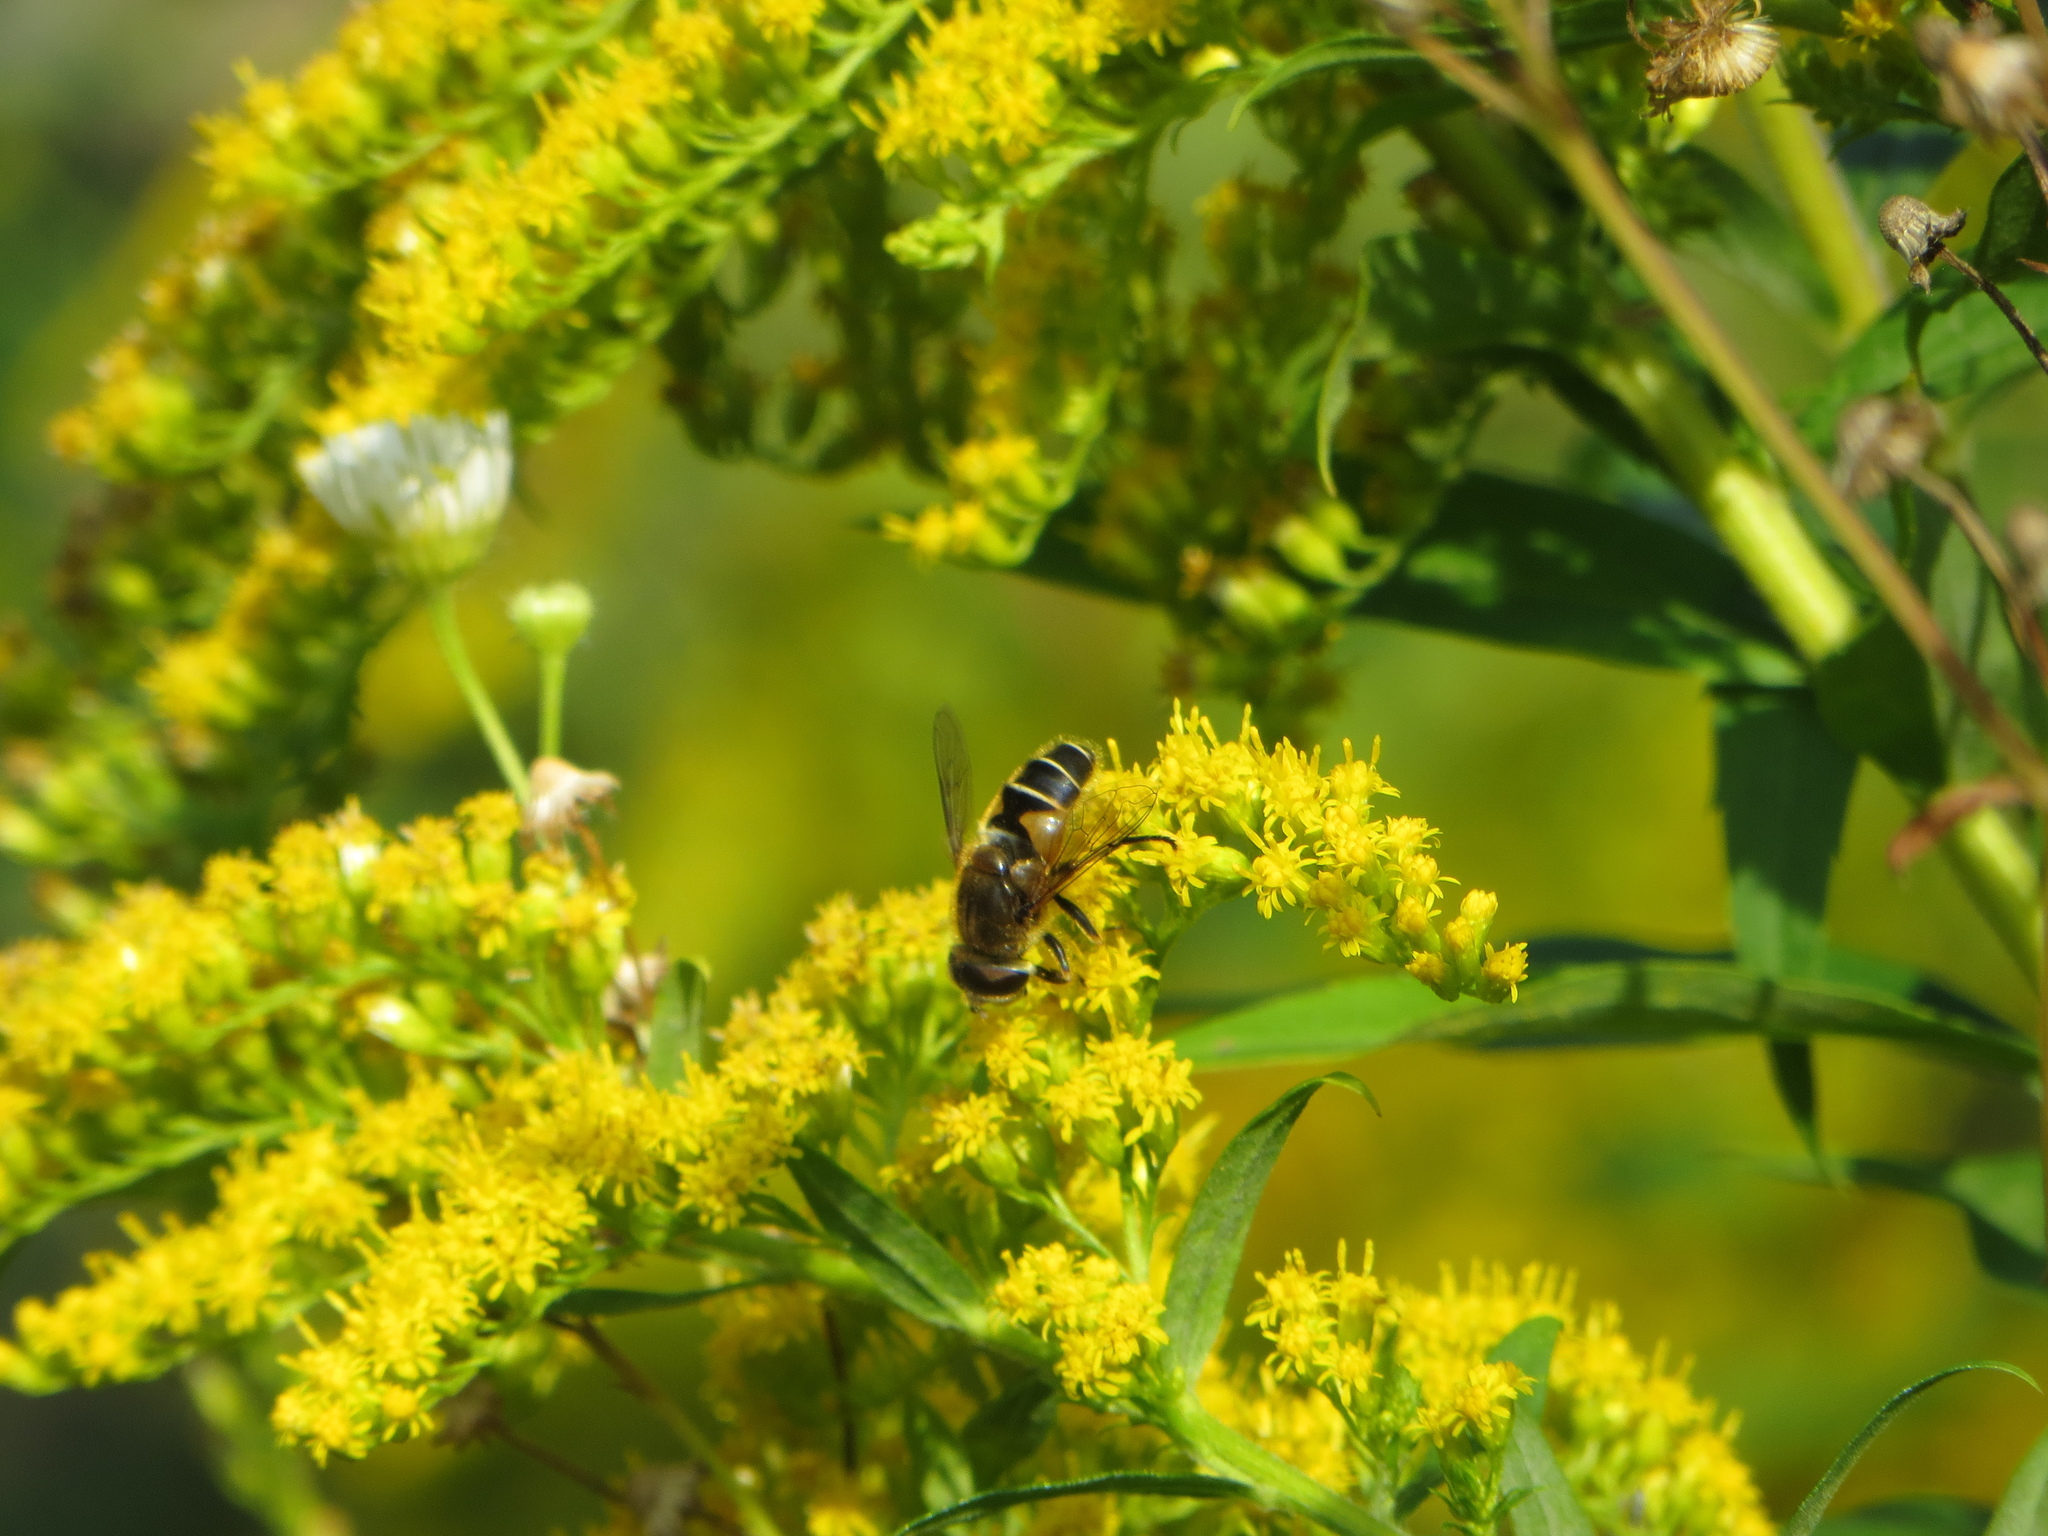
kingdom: Animalia
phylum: Arthropoda
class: Insecta
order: Diptera
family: Syrphidae
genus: Eristalis
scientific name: Eristalis nemorum
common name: Orange-spined drone fly
